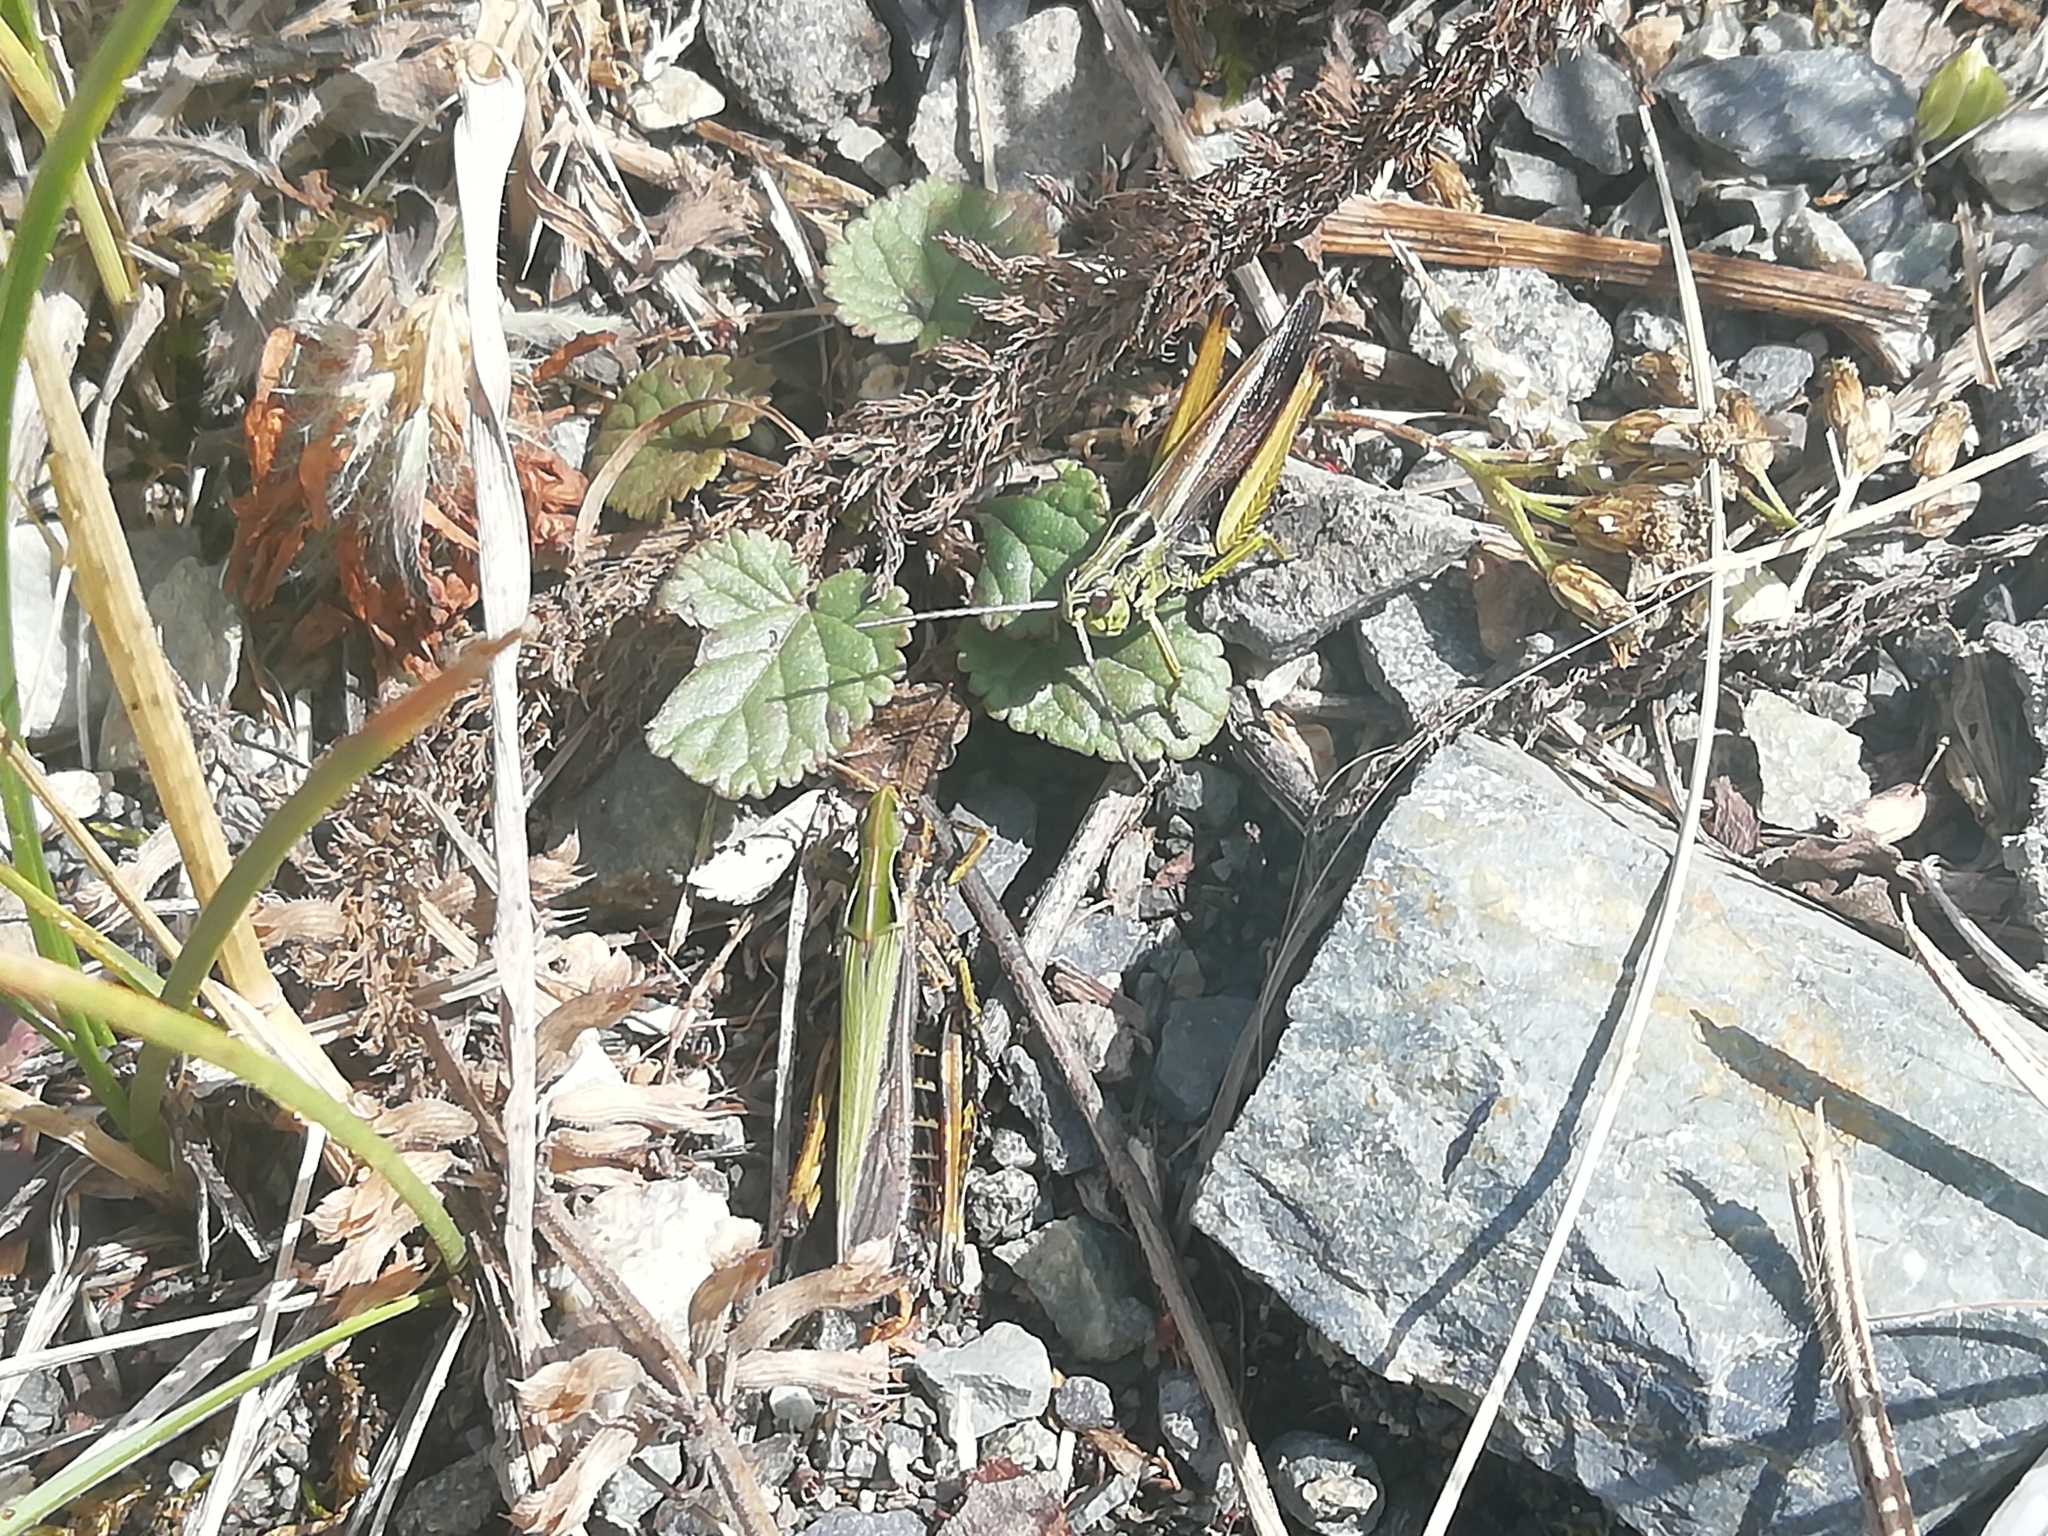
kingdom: Animalia
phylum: Arthropoda
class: Insecta
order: Orthoptera
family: Acrididae
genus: Omocestus
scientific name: Omocestus viridulus
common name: Common green grasshopper
